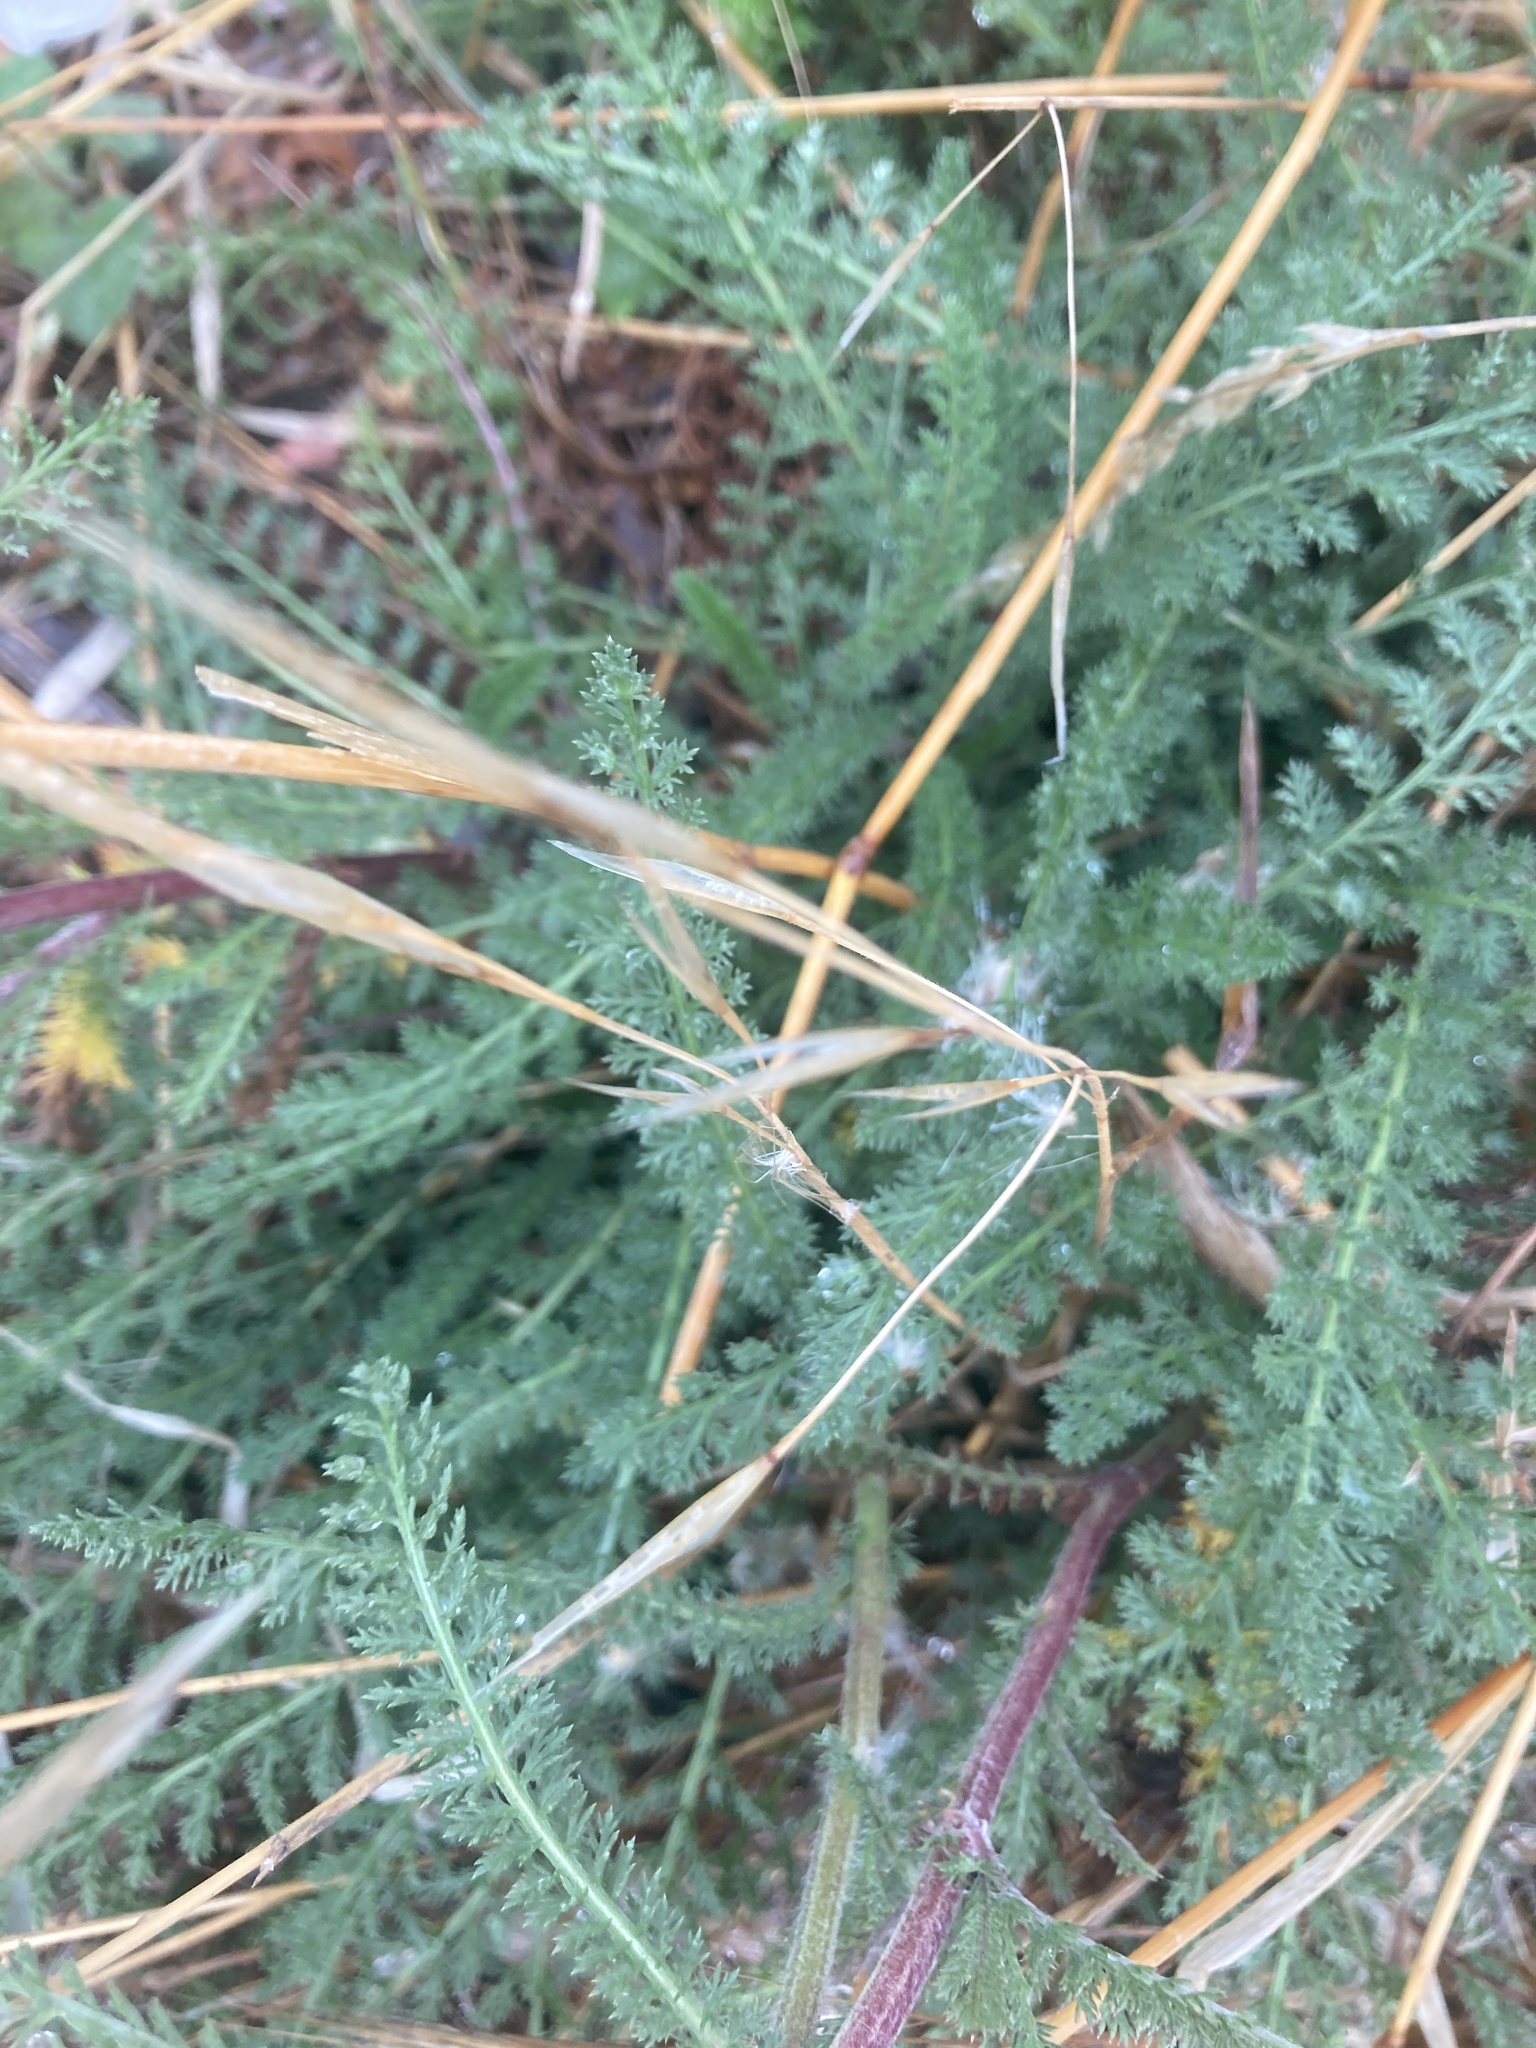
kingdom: Plantae
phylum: Tracheophyta
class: Magnoliopsida
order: Asterales
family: Asteraceae
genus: Achillea
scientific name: Achillea millefolium
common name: Yarrow
